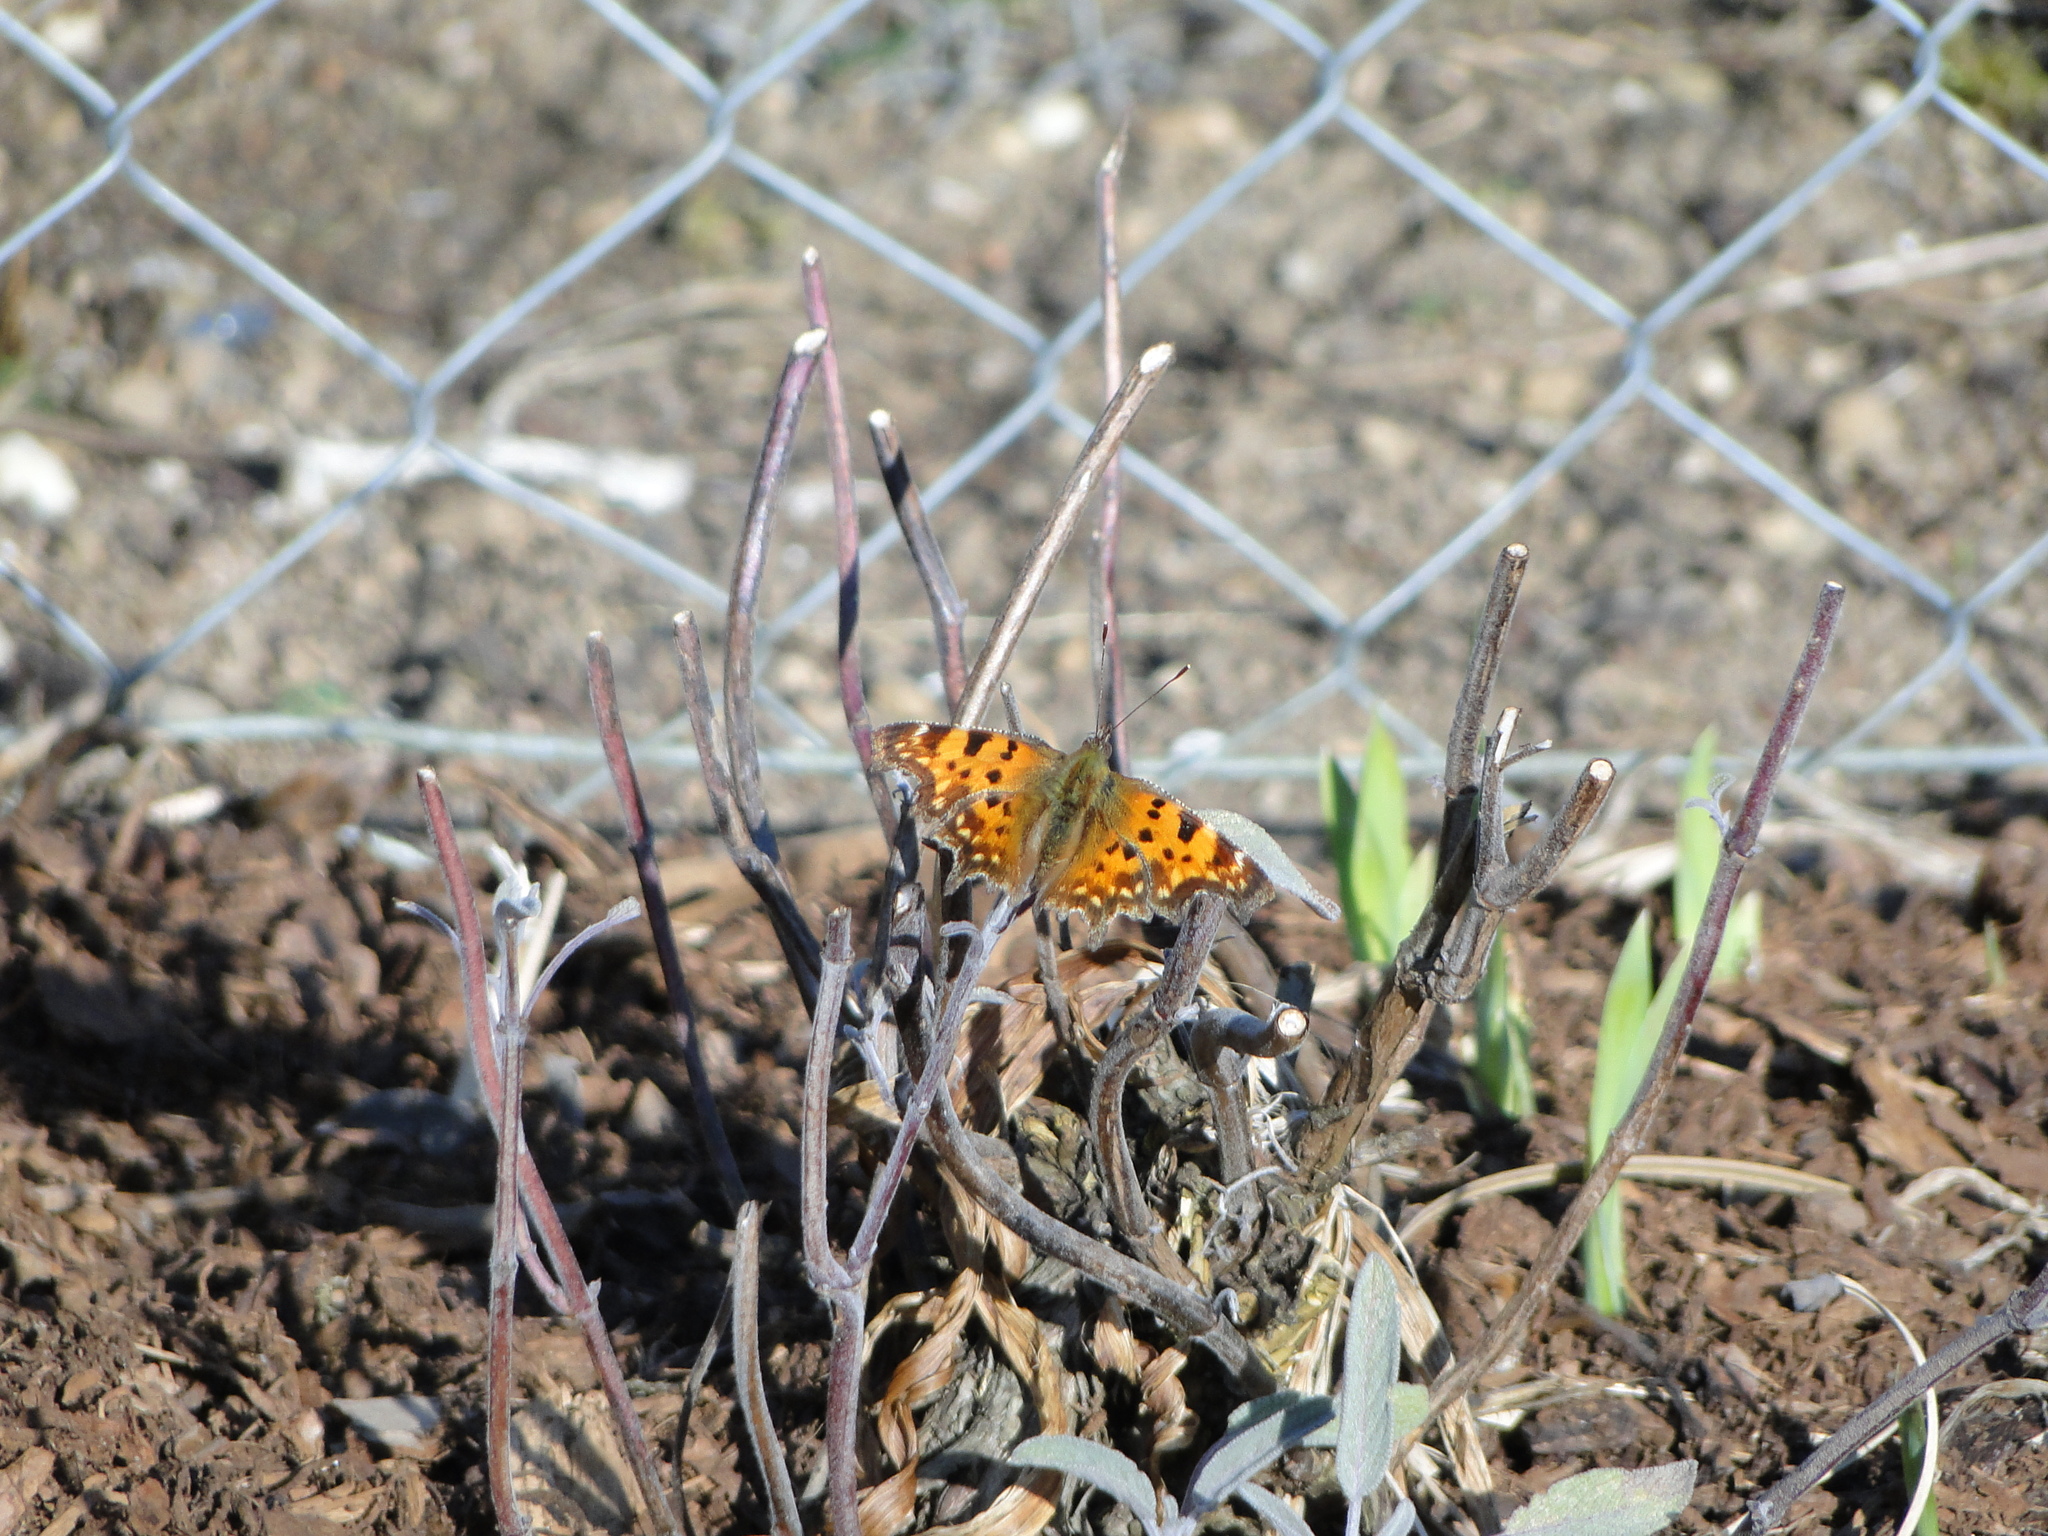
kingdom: Animalia
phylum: Arthropoda
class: Insecta
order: Lepidoptera
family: Nymphalidae
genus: Polygonia
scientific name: Polygonia c-album
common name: Comma
